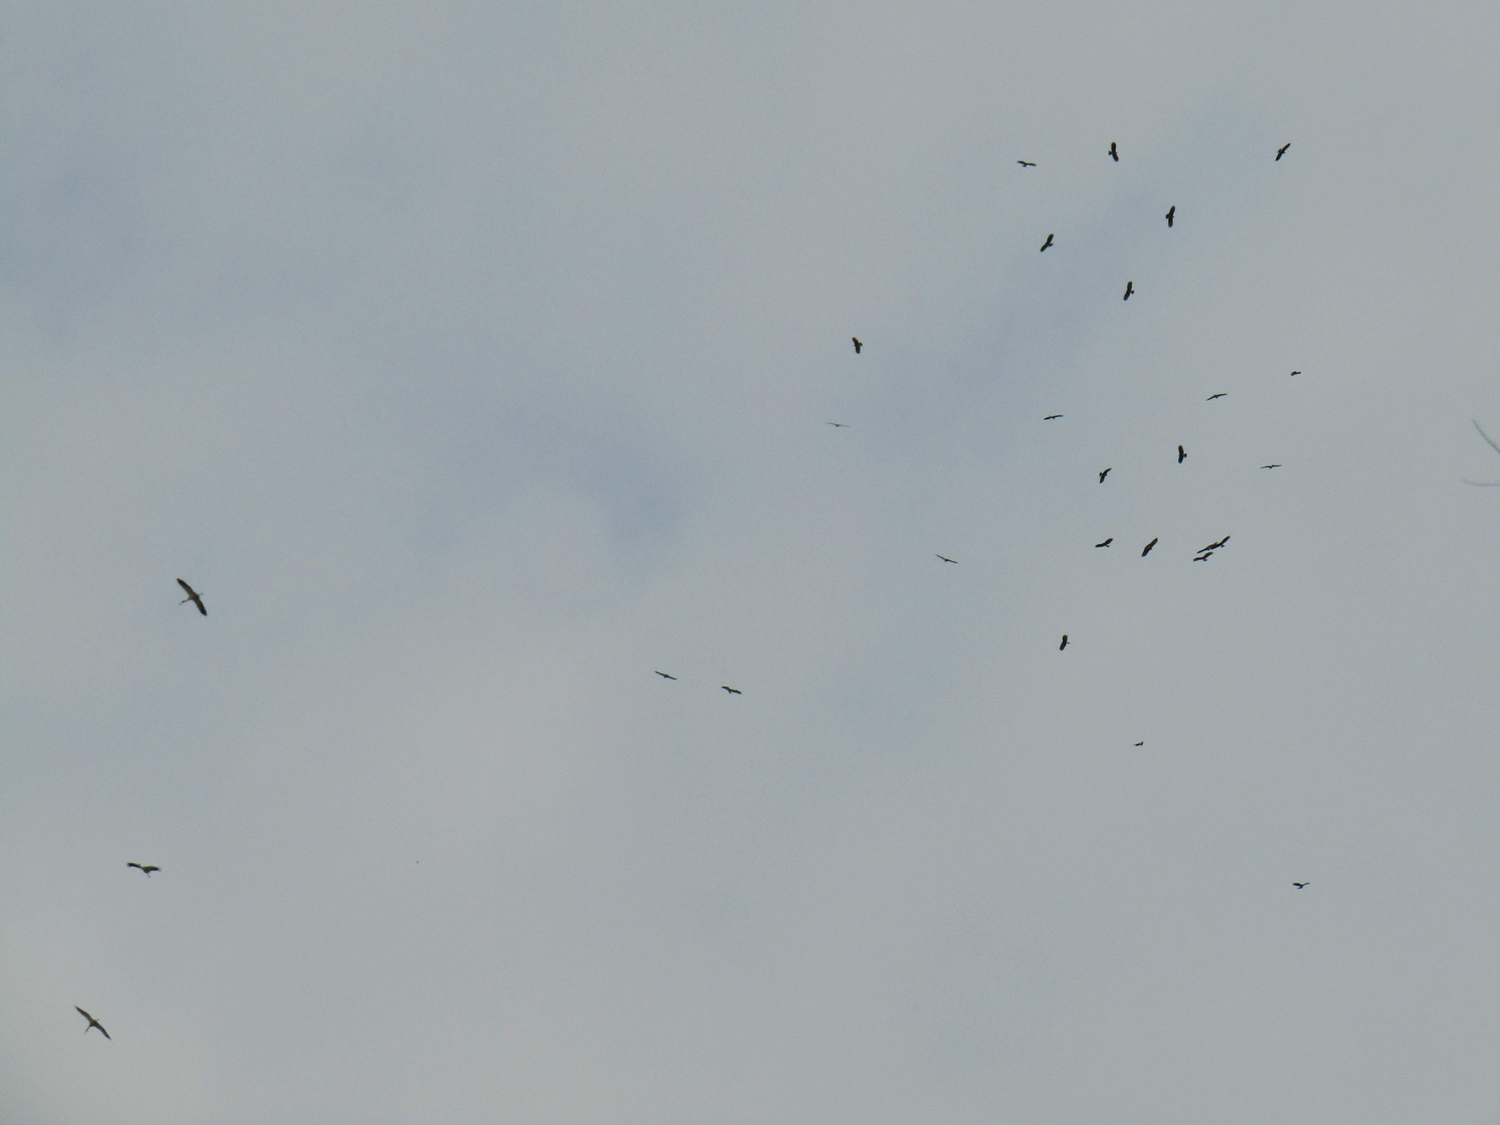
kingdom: Animalia
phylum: Chordata
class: Aves
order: Ciconiiformes
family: Ciconiidae
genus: Ciconia
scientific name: Ciconia maguari
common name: Maguari stork
